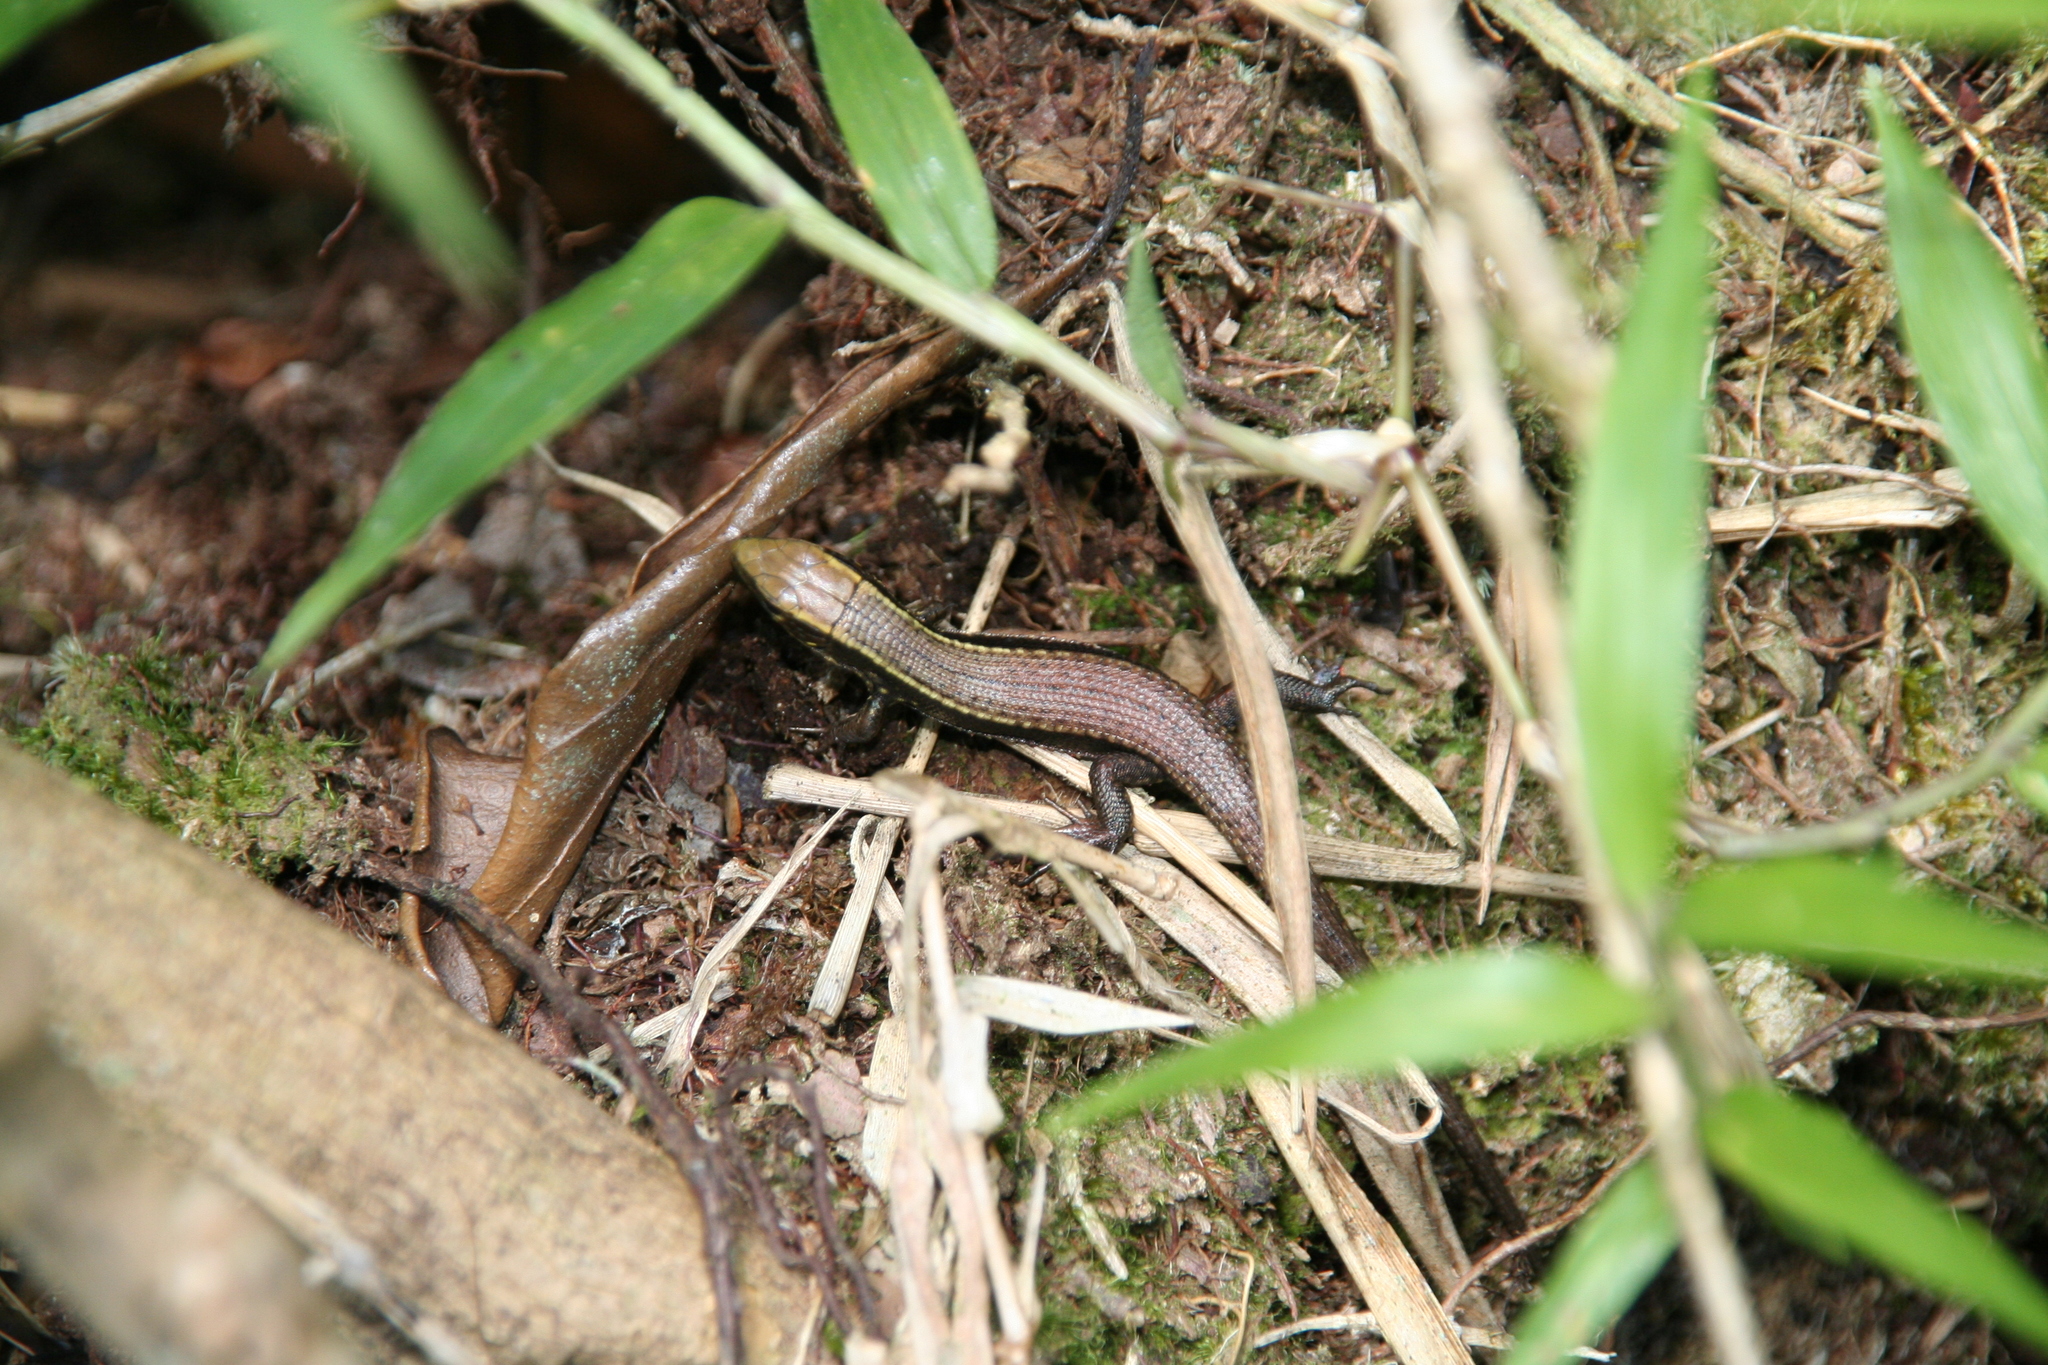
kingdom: Animalia
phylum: Chordata
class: Squamata
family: Gerrhosauridae
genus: Zonosaurus
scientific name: Zonosaurus madagascariensis
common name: Madagascar girdled lizard
